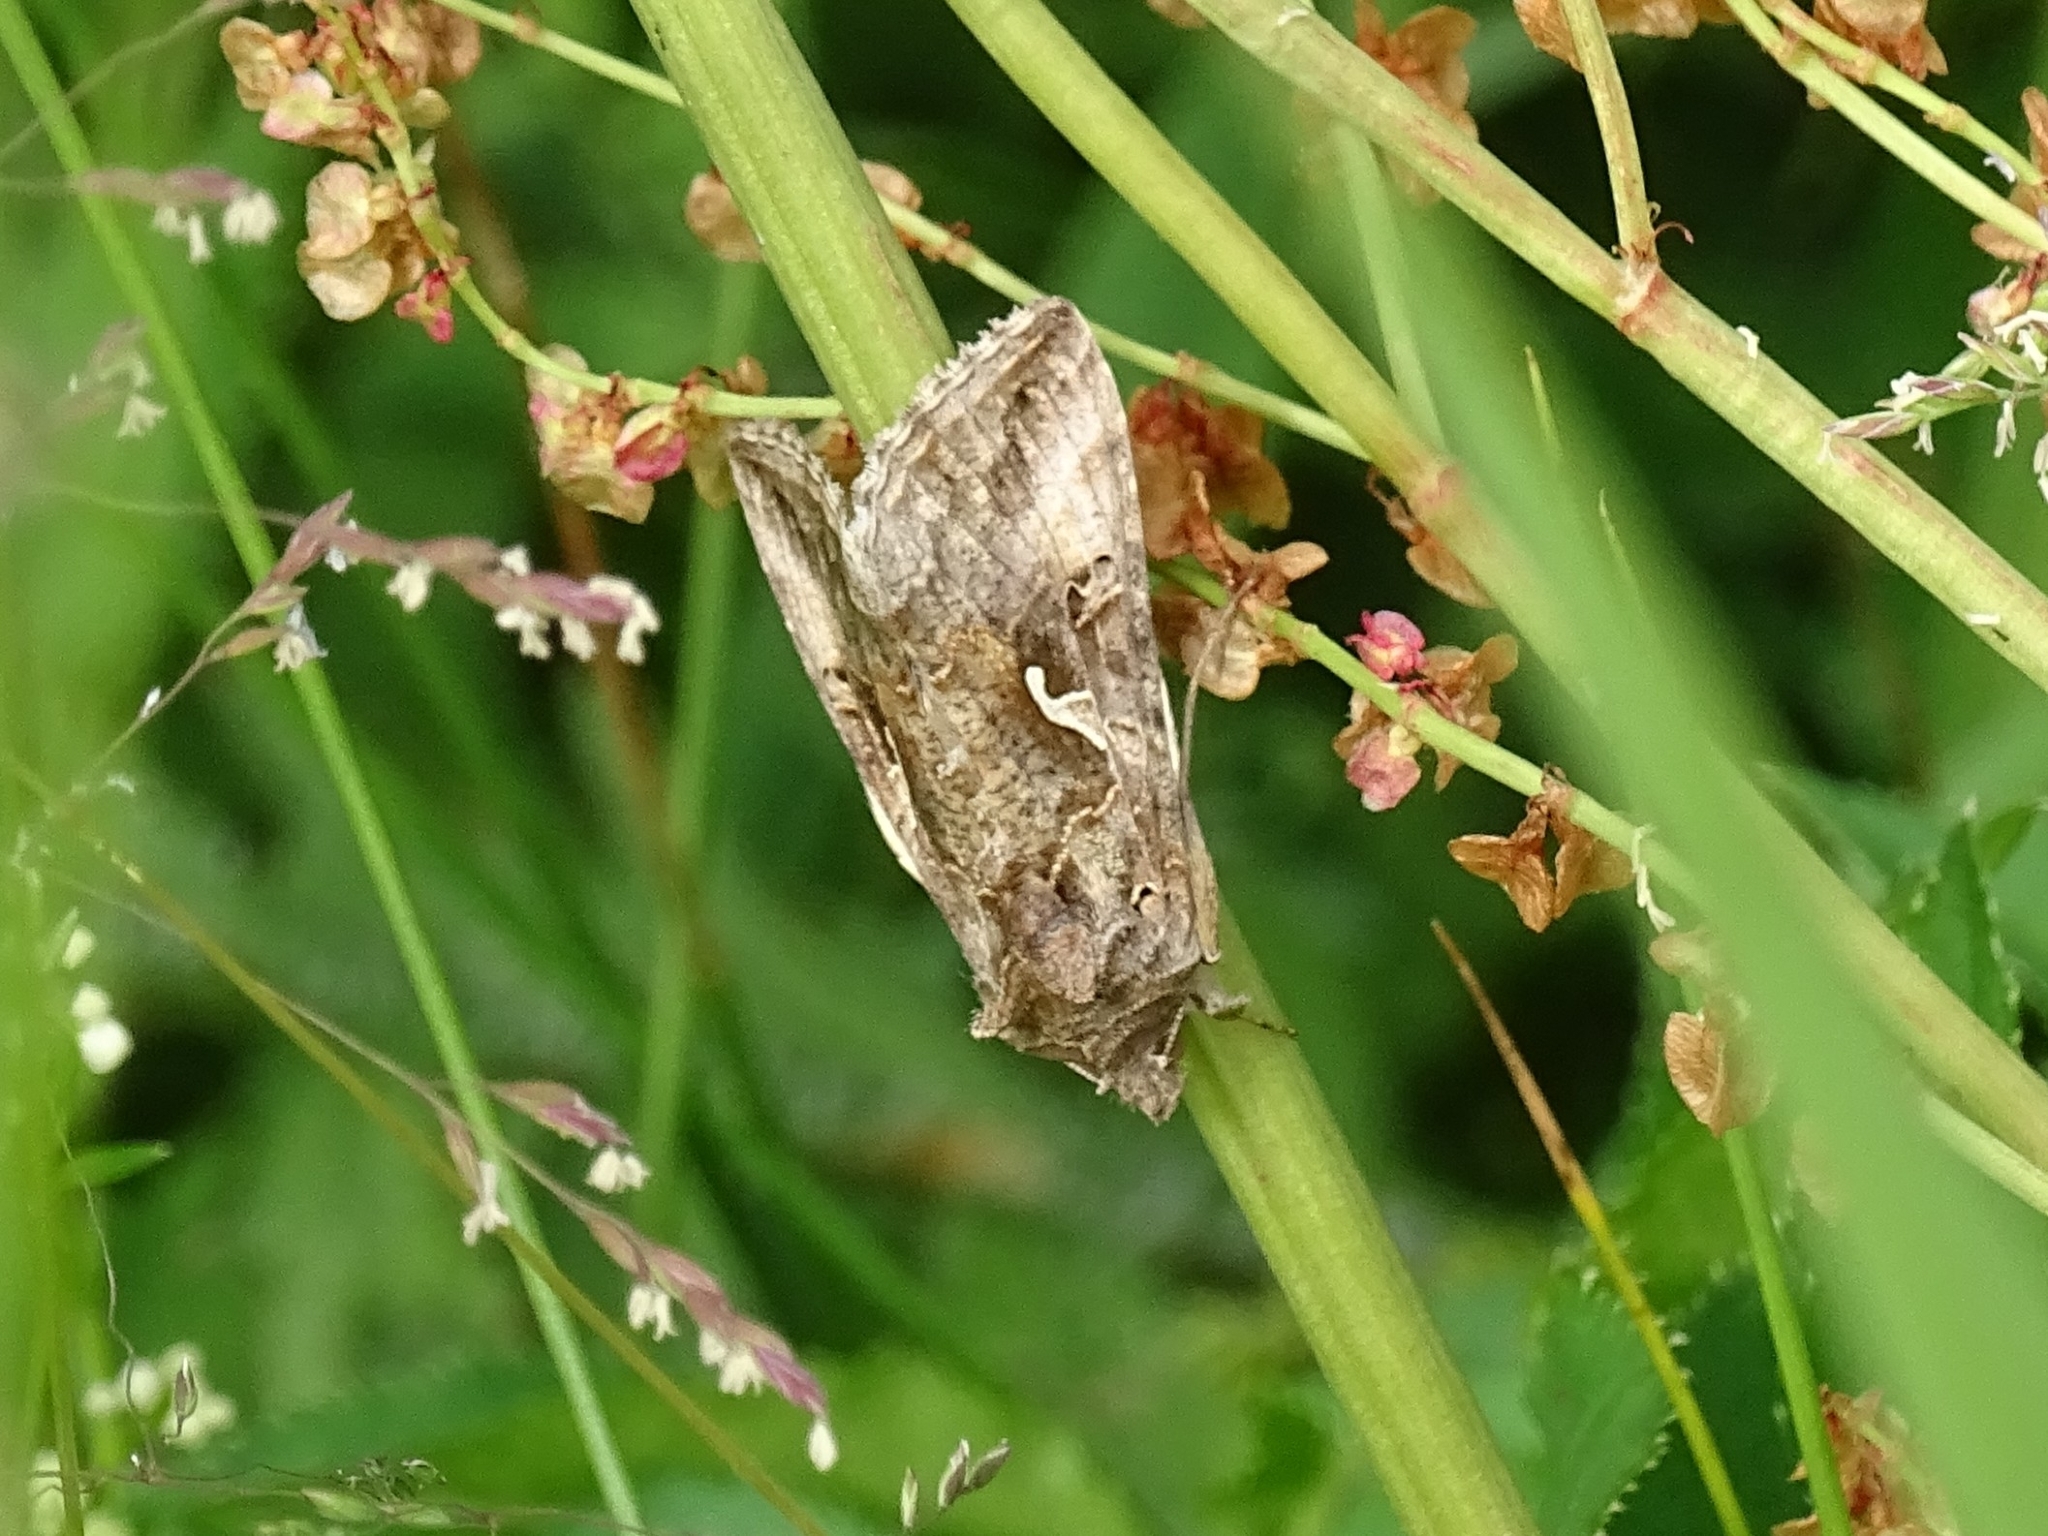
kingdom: Animalia
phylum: Arthropoda
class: Insecta
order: Lepidoptera
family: Noctuidae
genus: Autographa
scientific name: Autographa gamma
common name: Silver y
